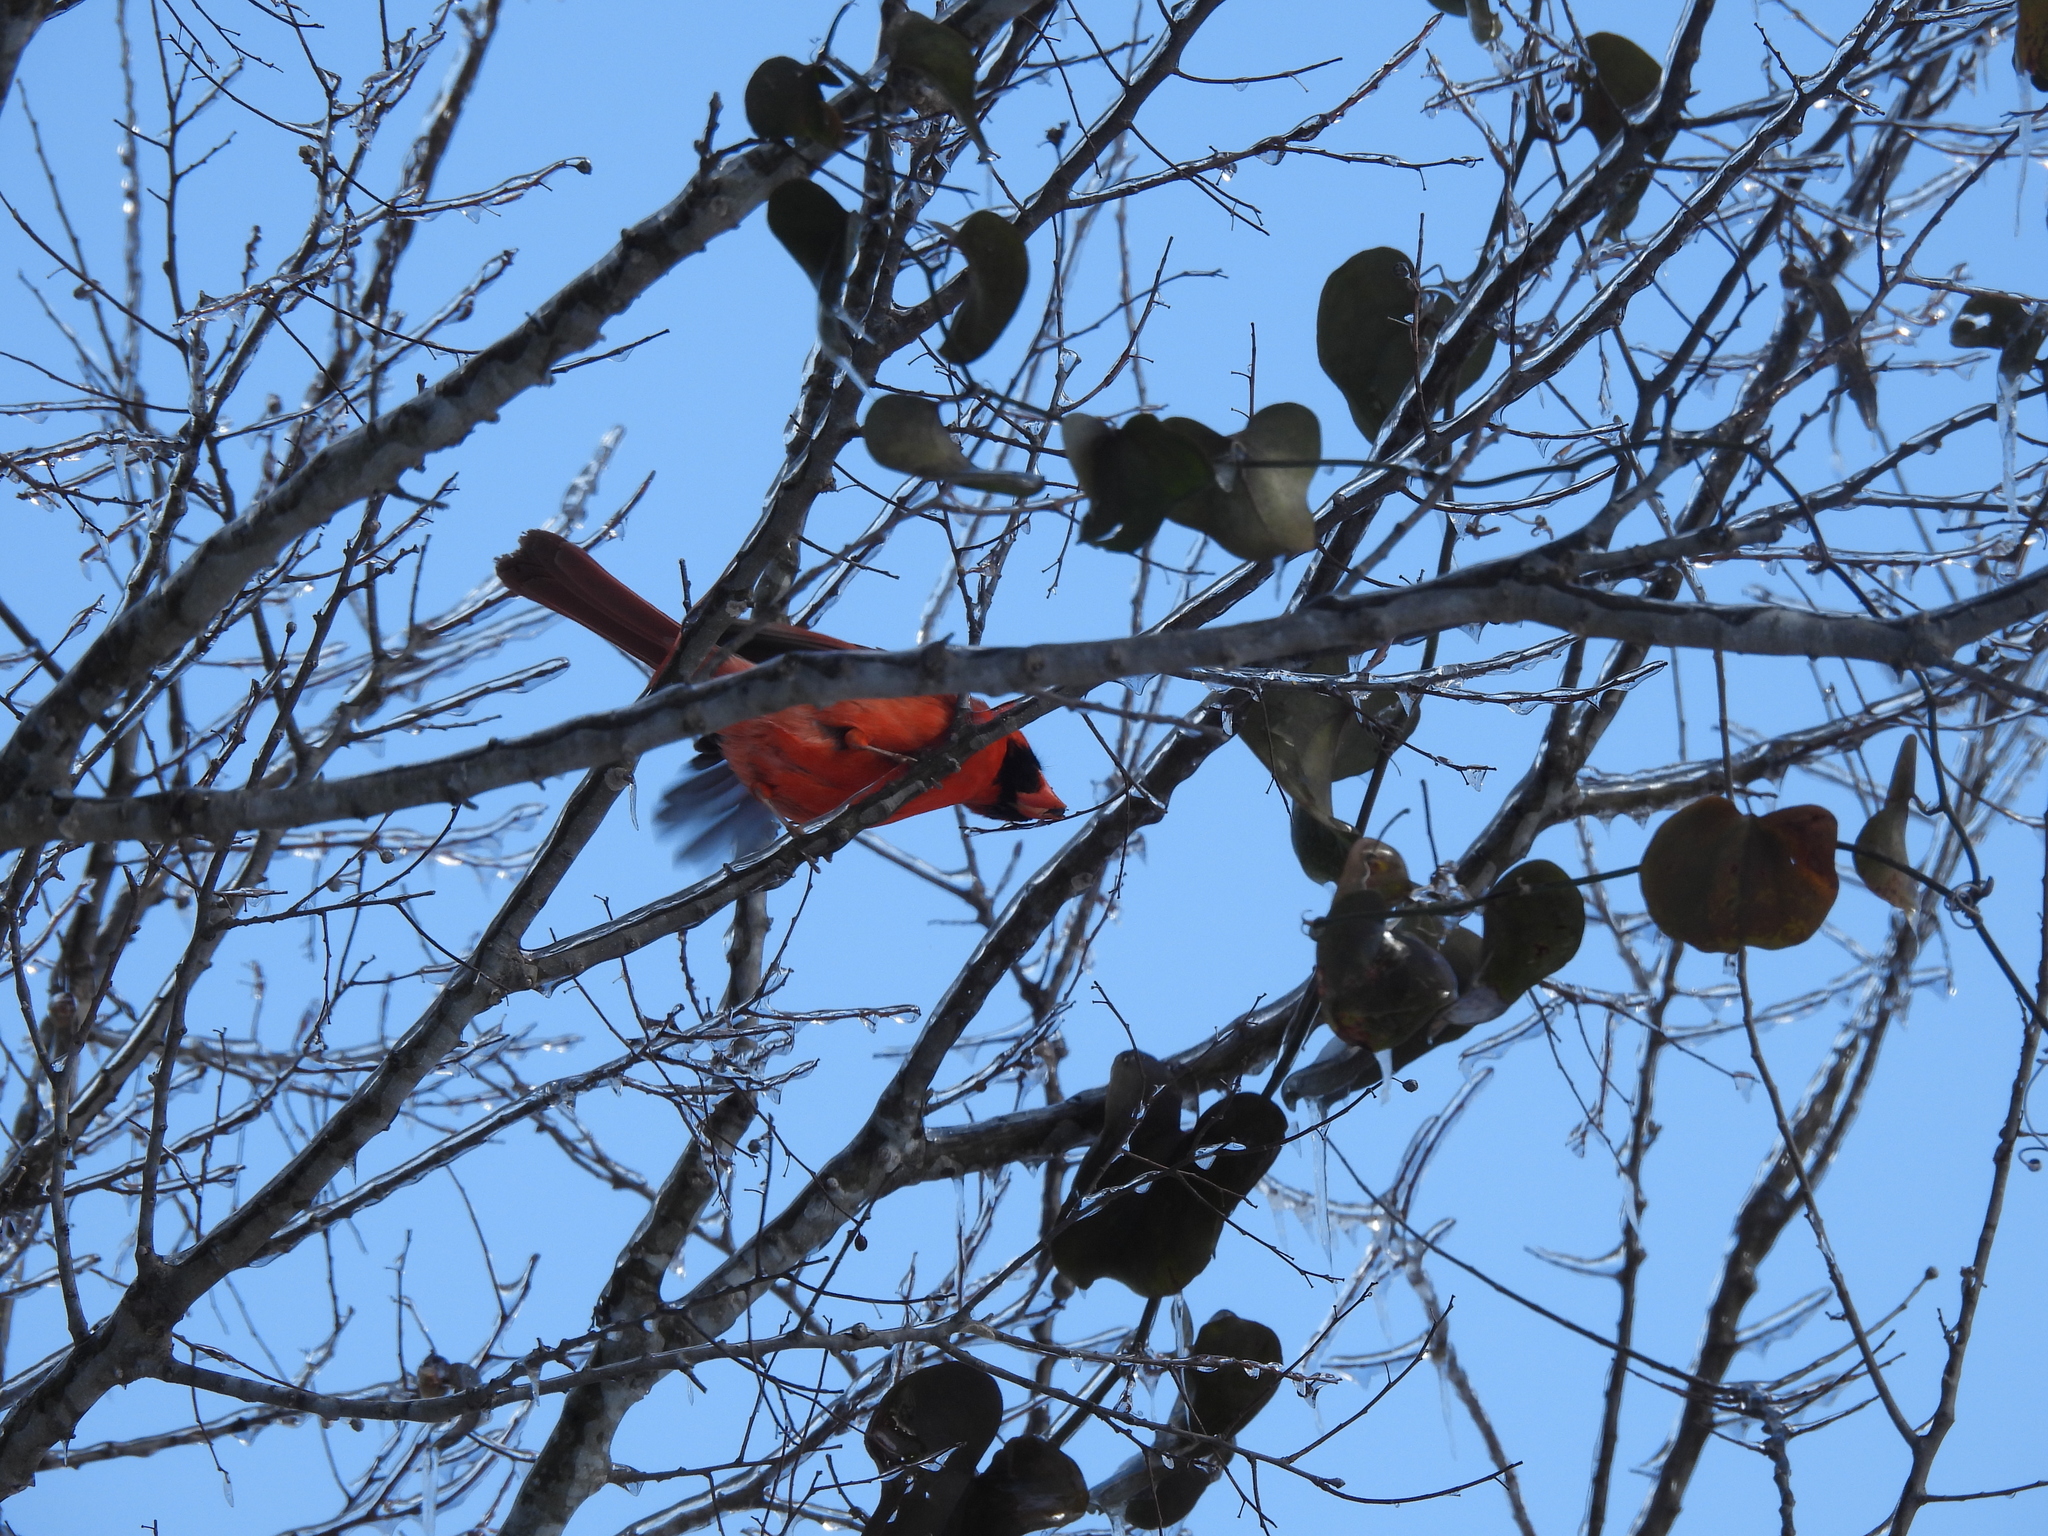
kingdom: Animalia
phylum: Chordata
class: Aves
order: Passeriformes
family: Cardinalidae
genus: Cardinalis
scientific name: Cardinalis cardinalis
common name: Northern cardinal
